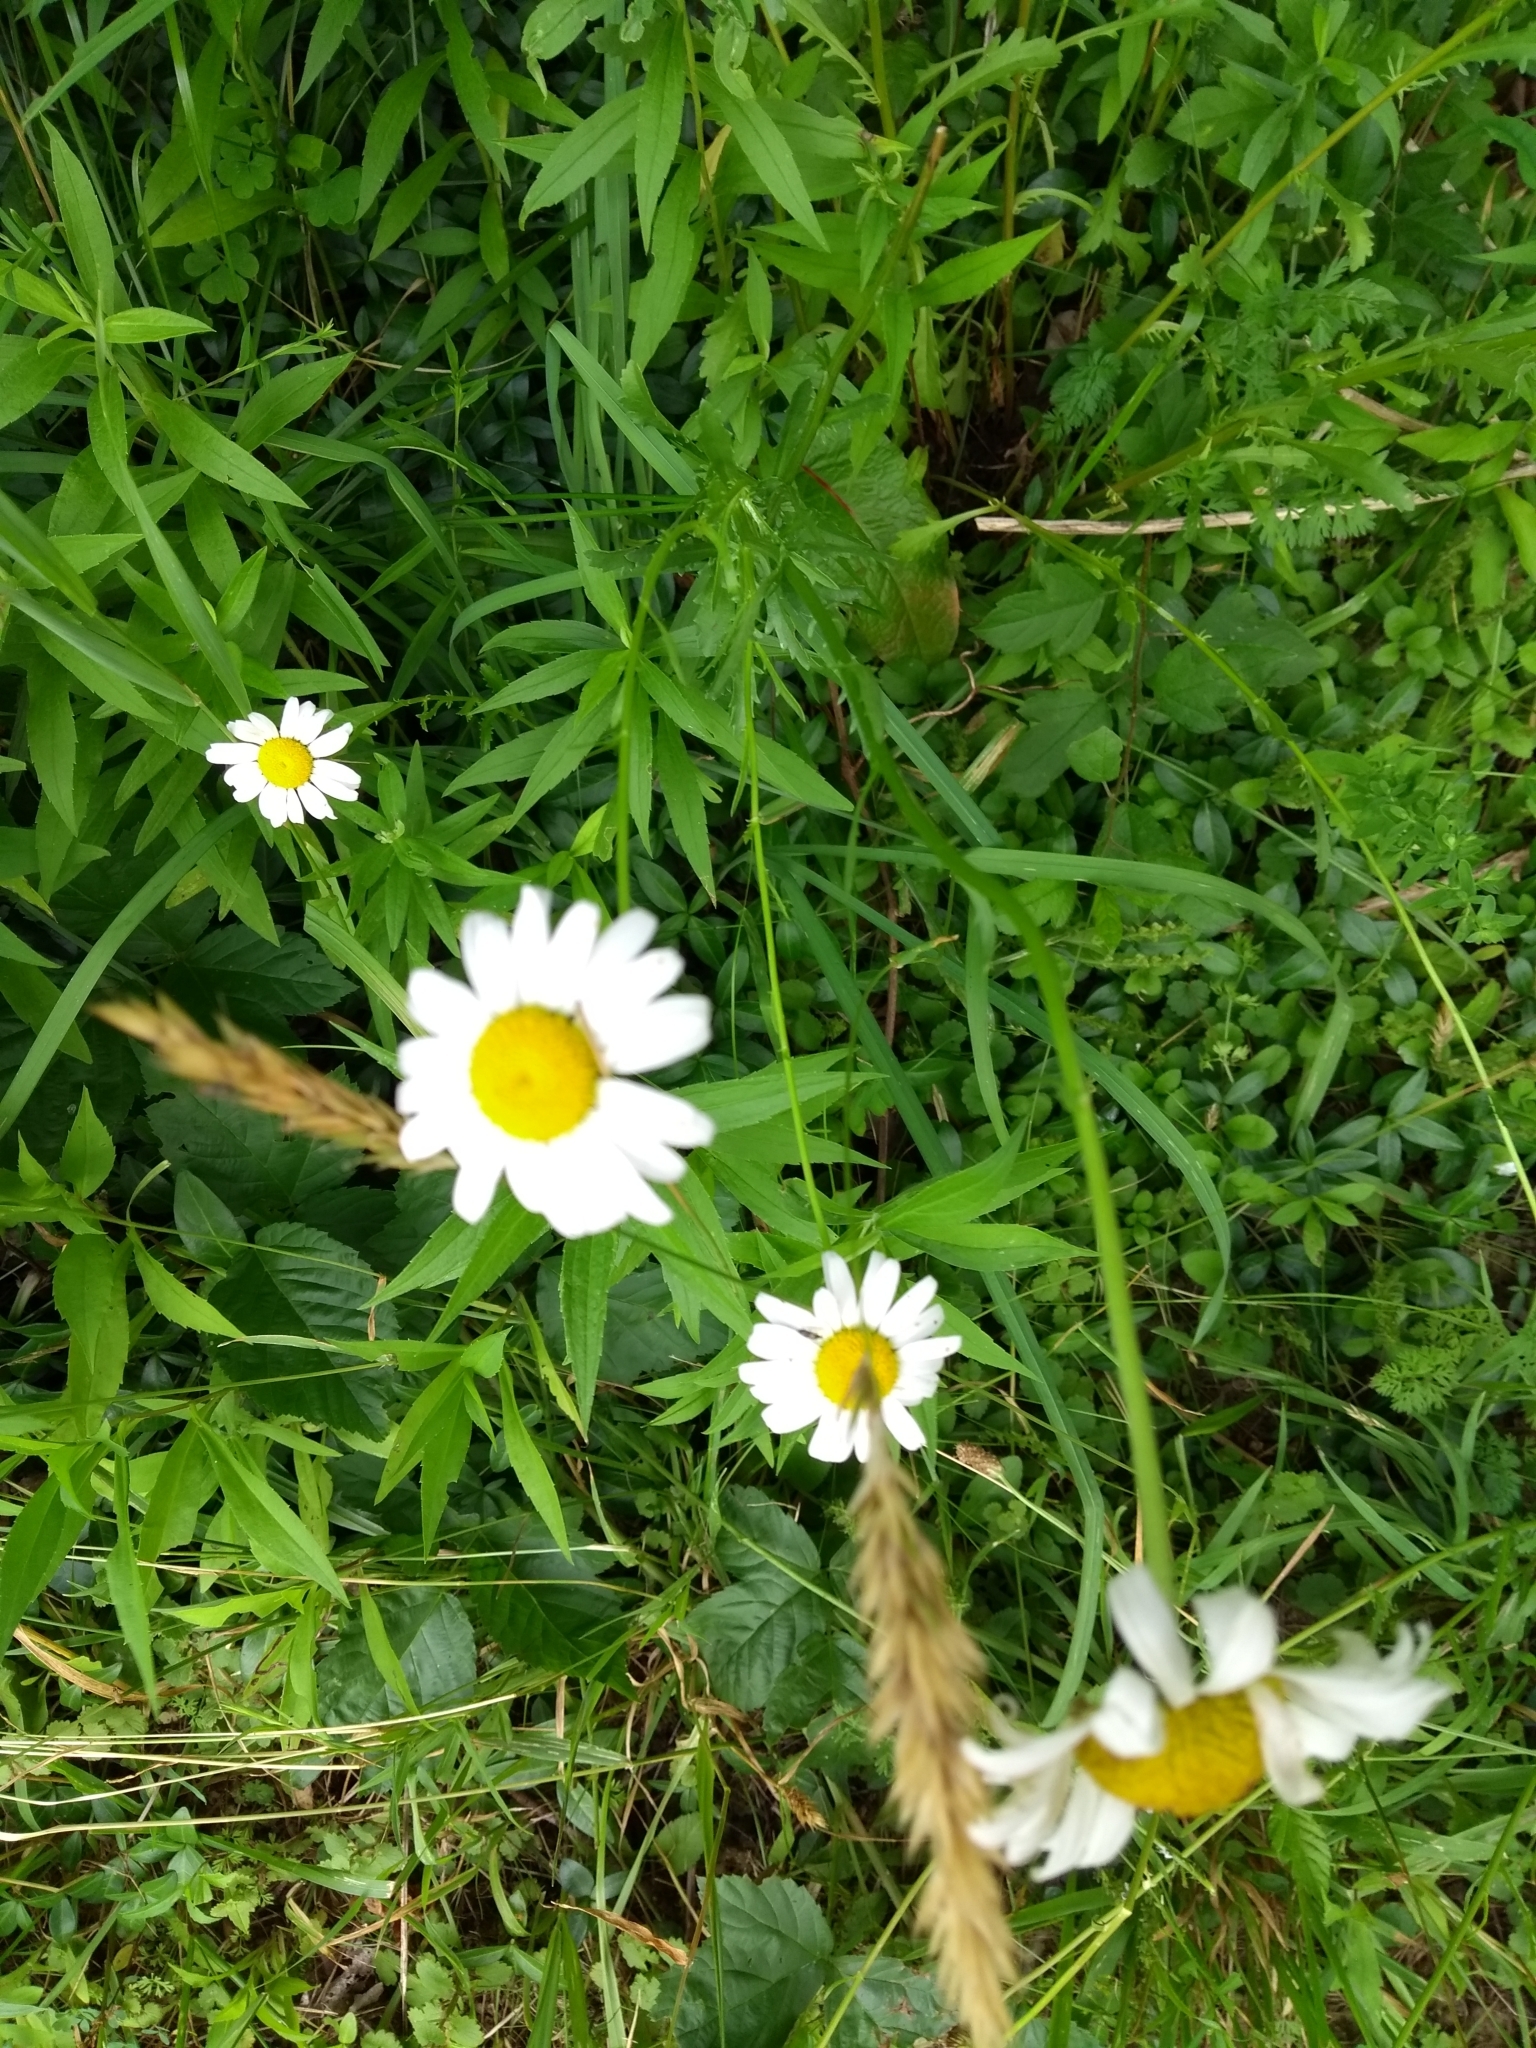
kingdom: Plantae
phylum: Tracheophyta
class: Magnoliopsida
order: Asterales
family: Asteraceae
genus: Leucanthemum
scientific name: Leucanthemum vulgare
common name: Oxeye daisy
